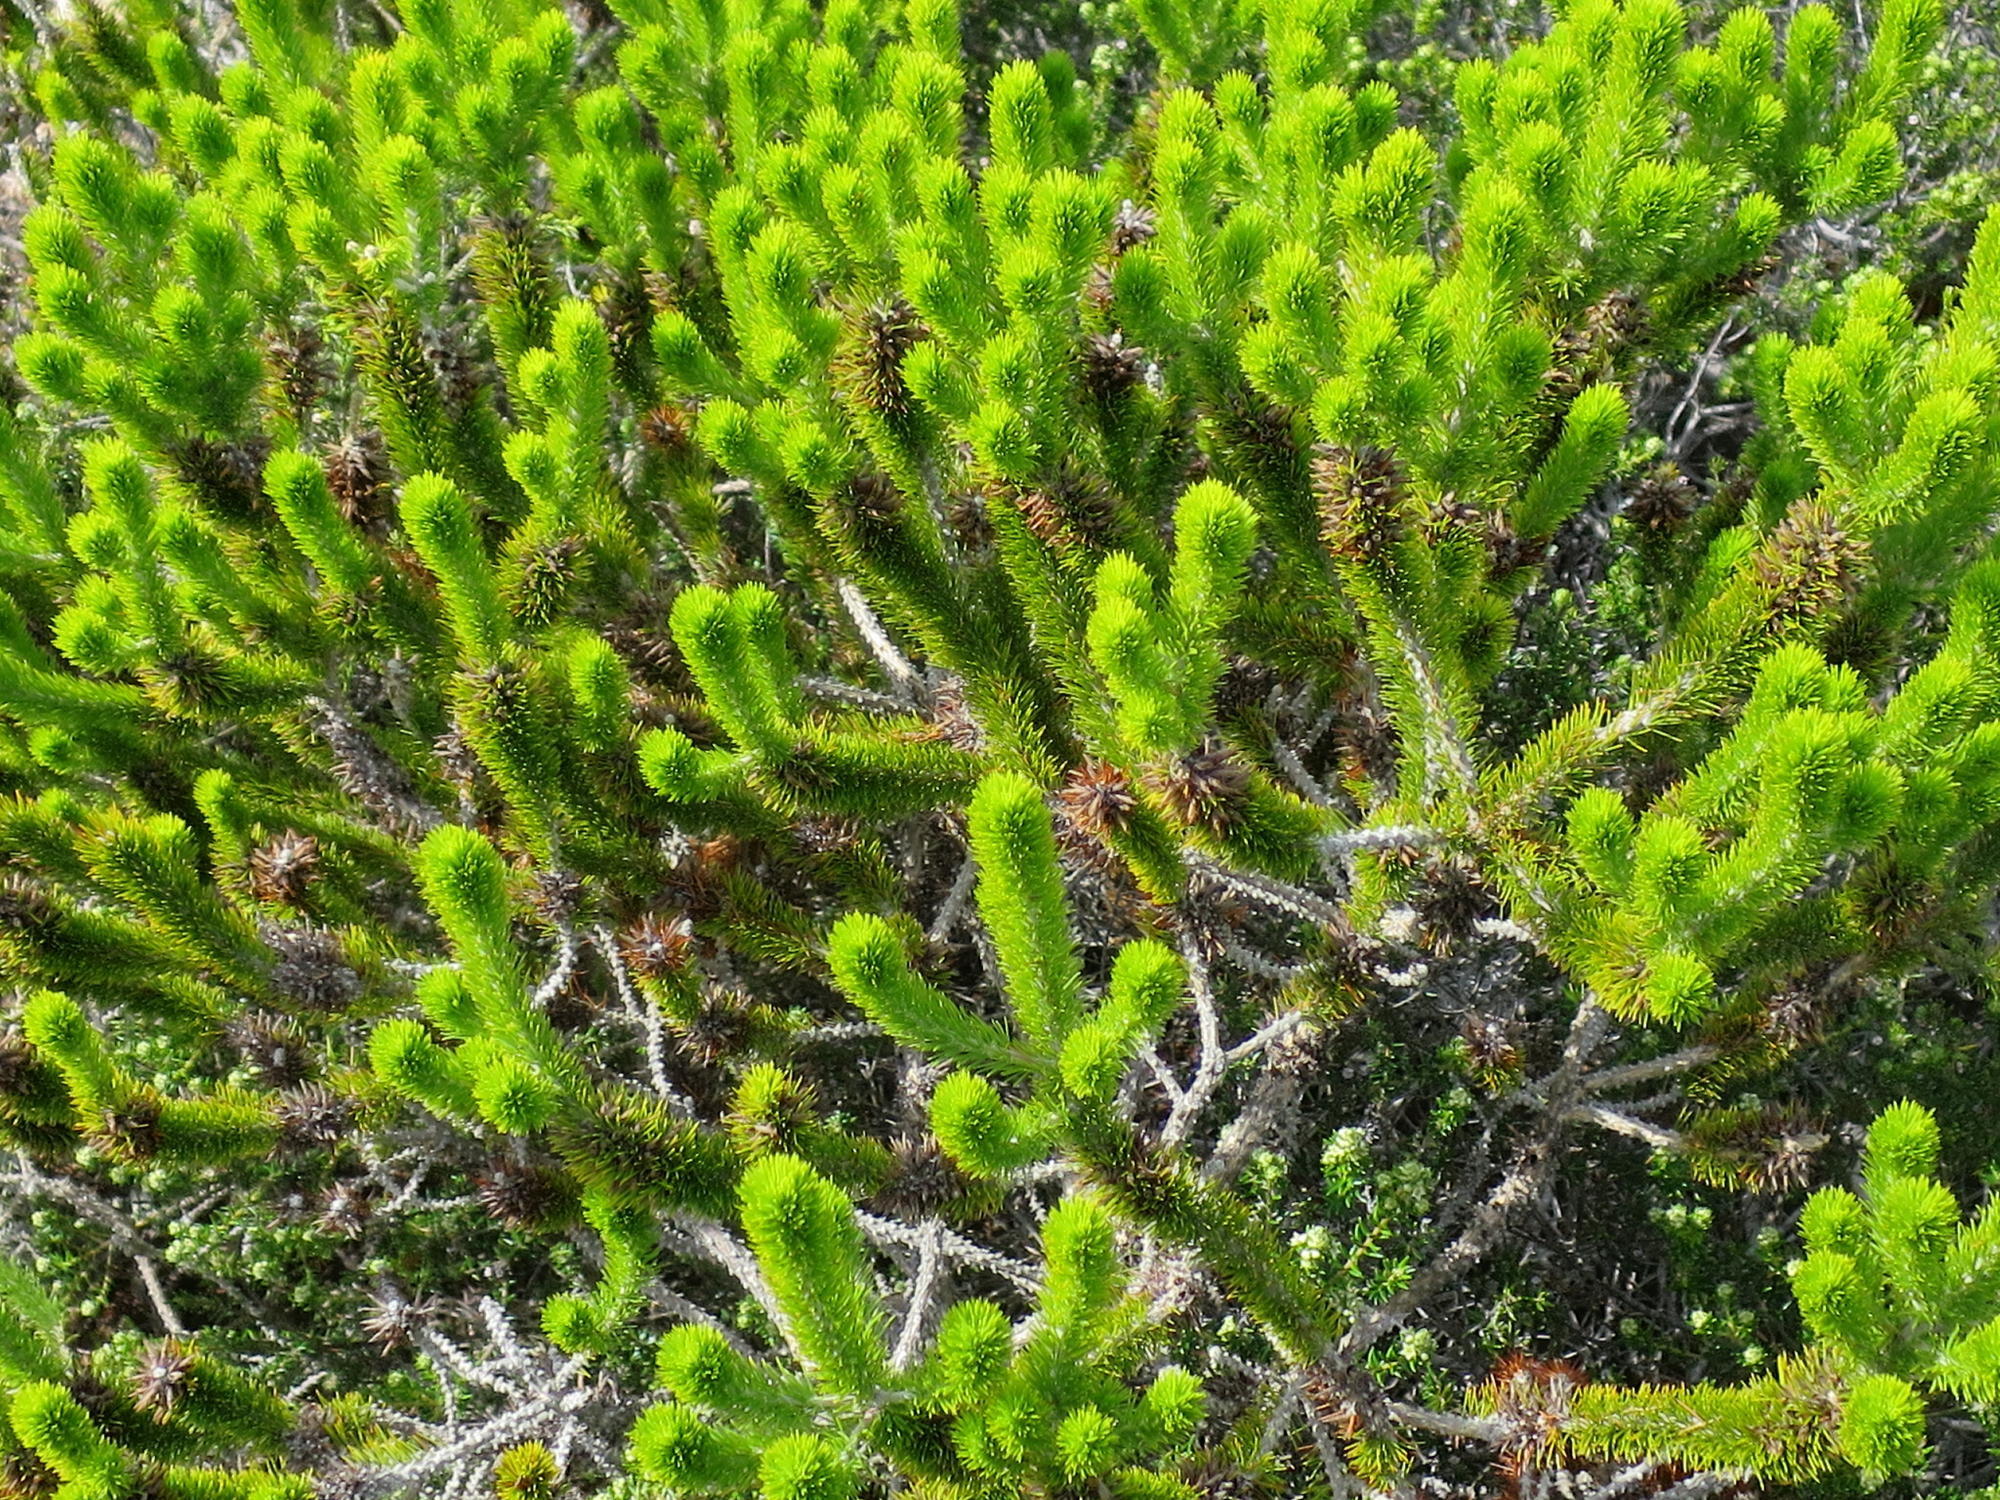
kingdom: Plantae
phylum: Tracheophyta
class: Magnoliopsida
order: Fabales
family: Fabaceae
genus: Aspalathus
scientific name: Aspalathus alopecurus
